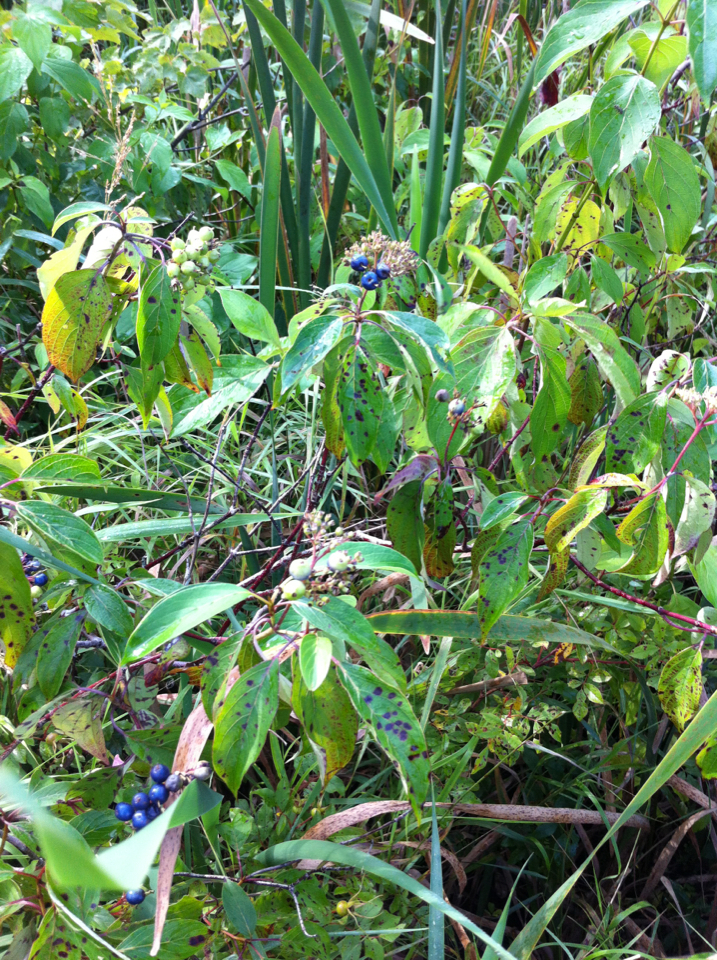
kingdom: Plantae
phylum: Tracheophyta
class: Magnoliopsida
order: Cornales
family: Cornaceae
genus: Cornus
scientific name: Cornus amomum
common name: Silky dogwood
